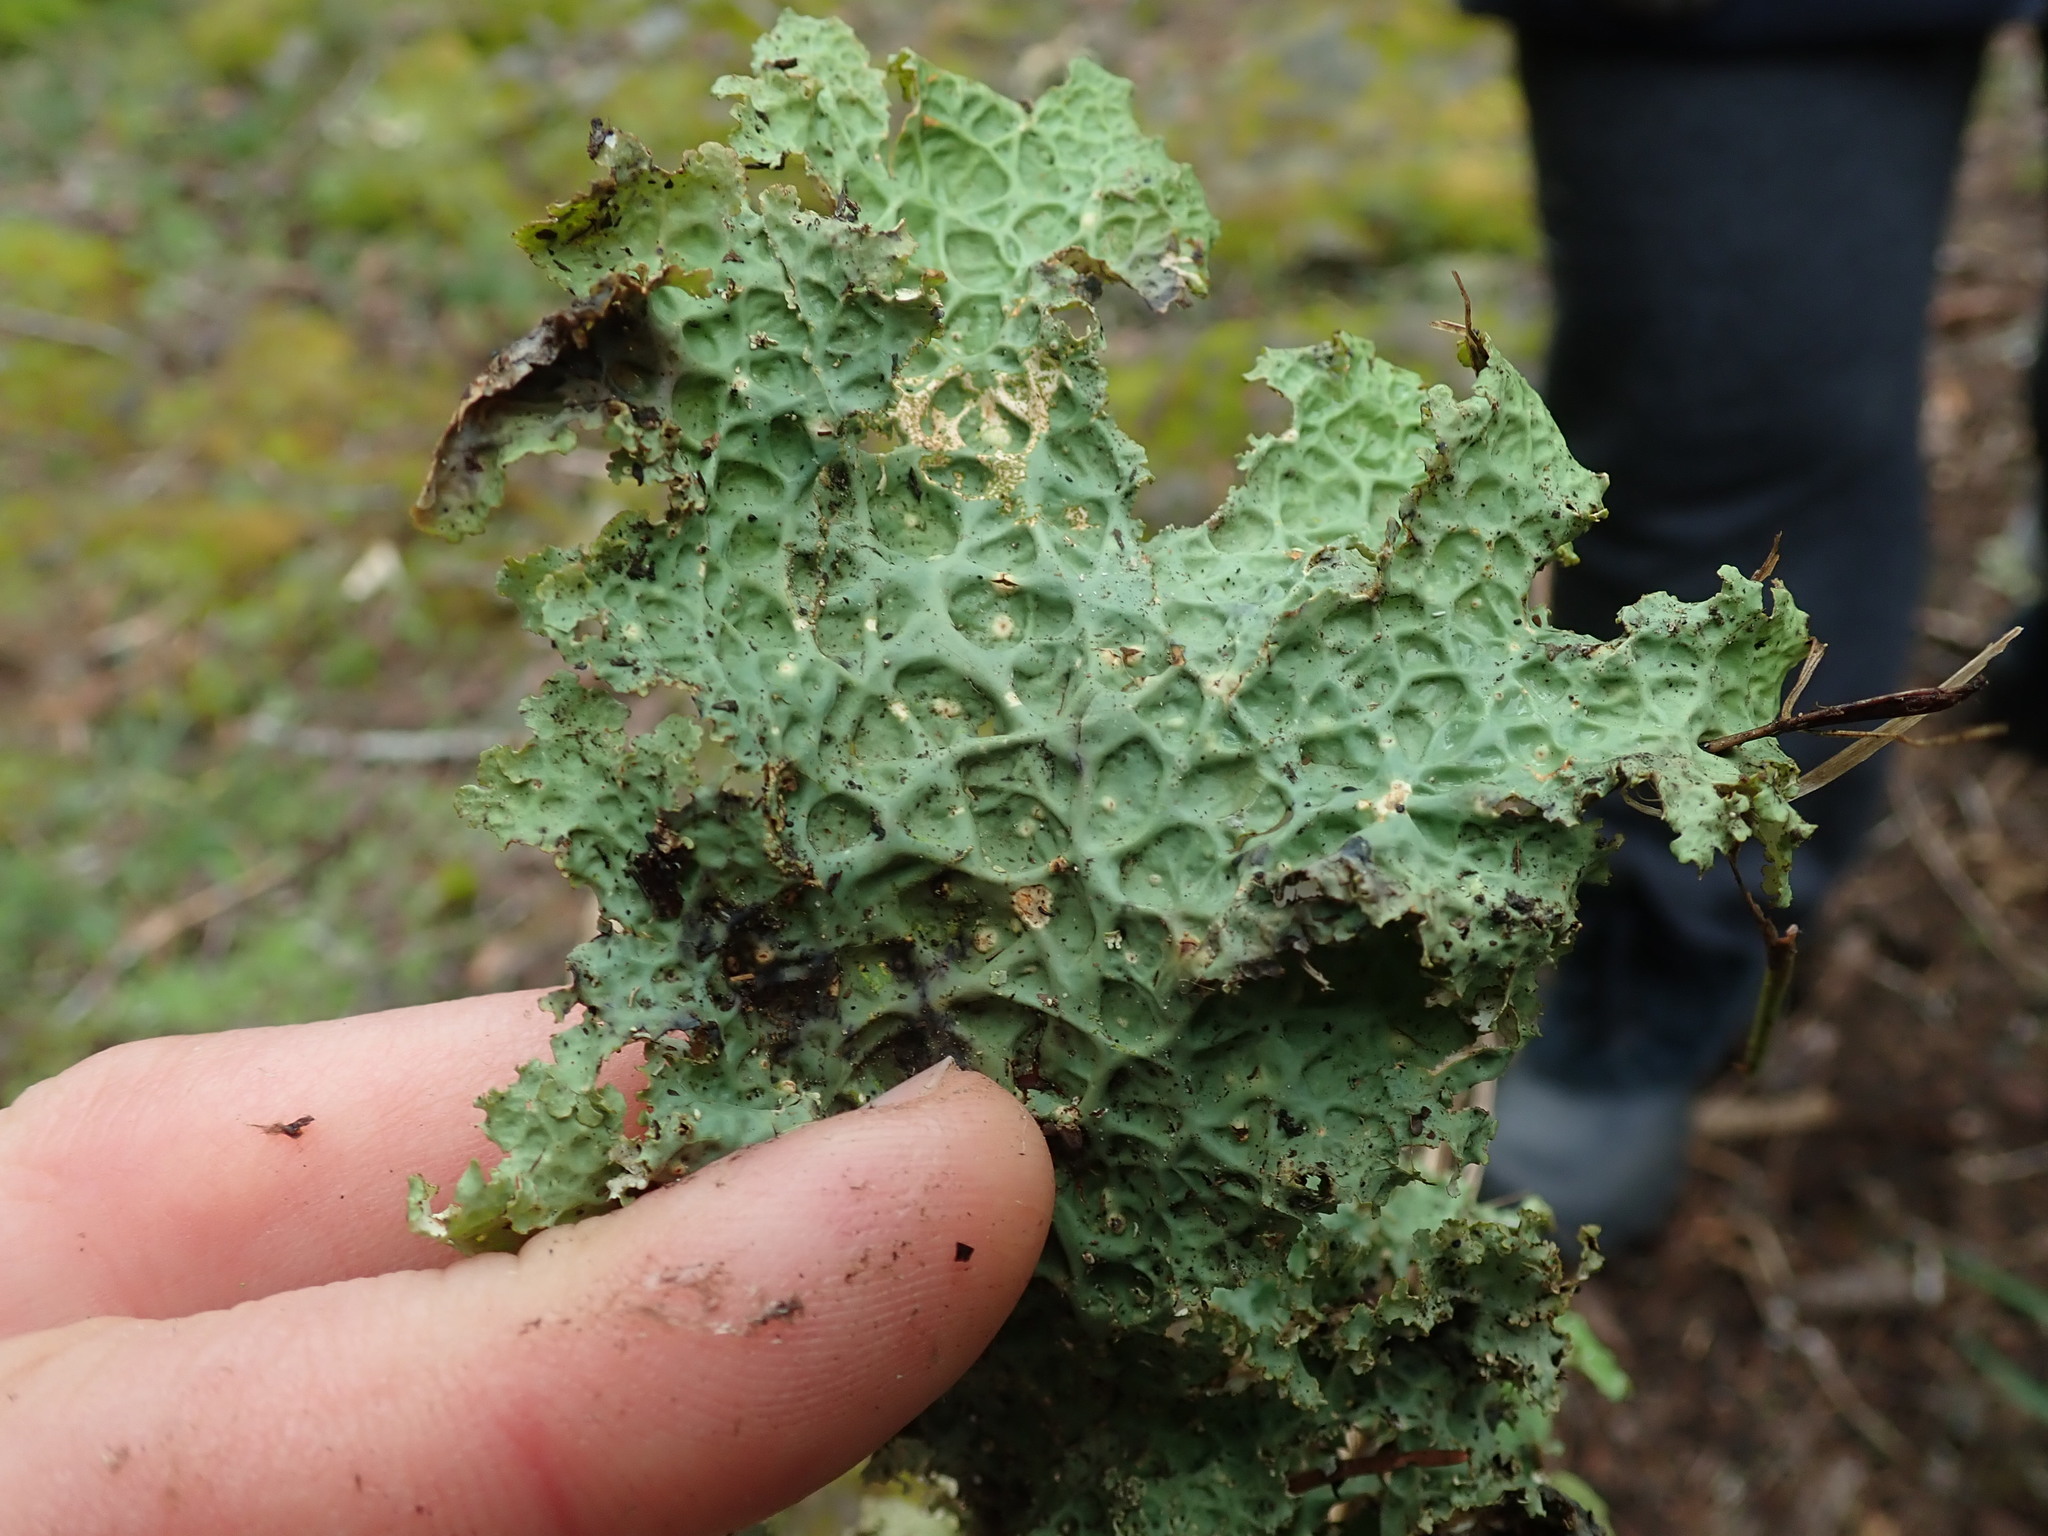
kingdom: Fungi
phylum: Ascomycota
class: Lecanoromycetes
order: Peltigerales
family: Lobariaceae
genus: Lobaria
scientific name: Lobaria oregana
